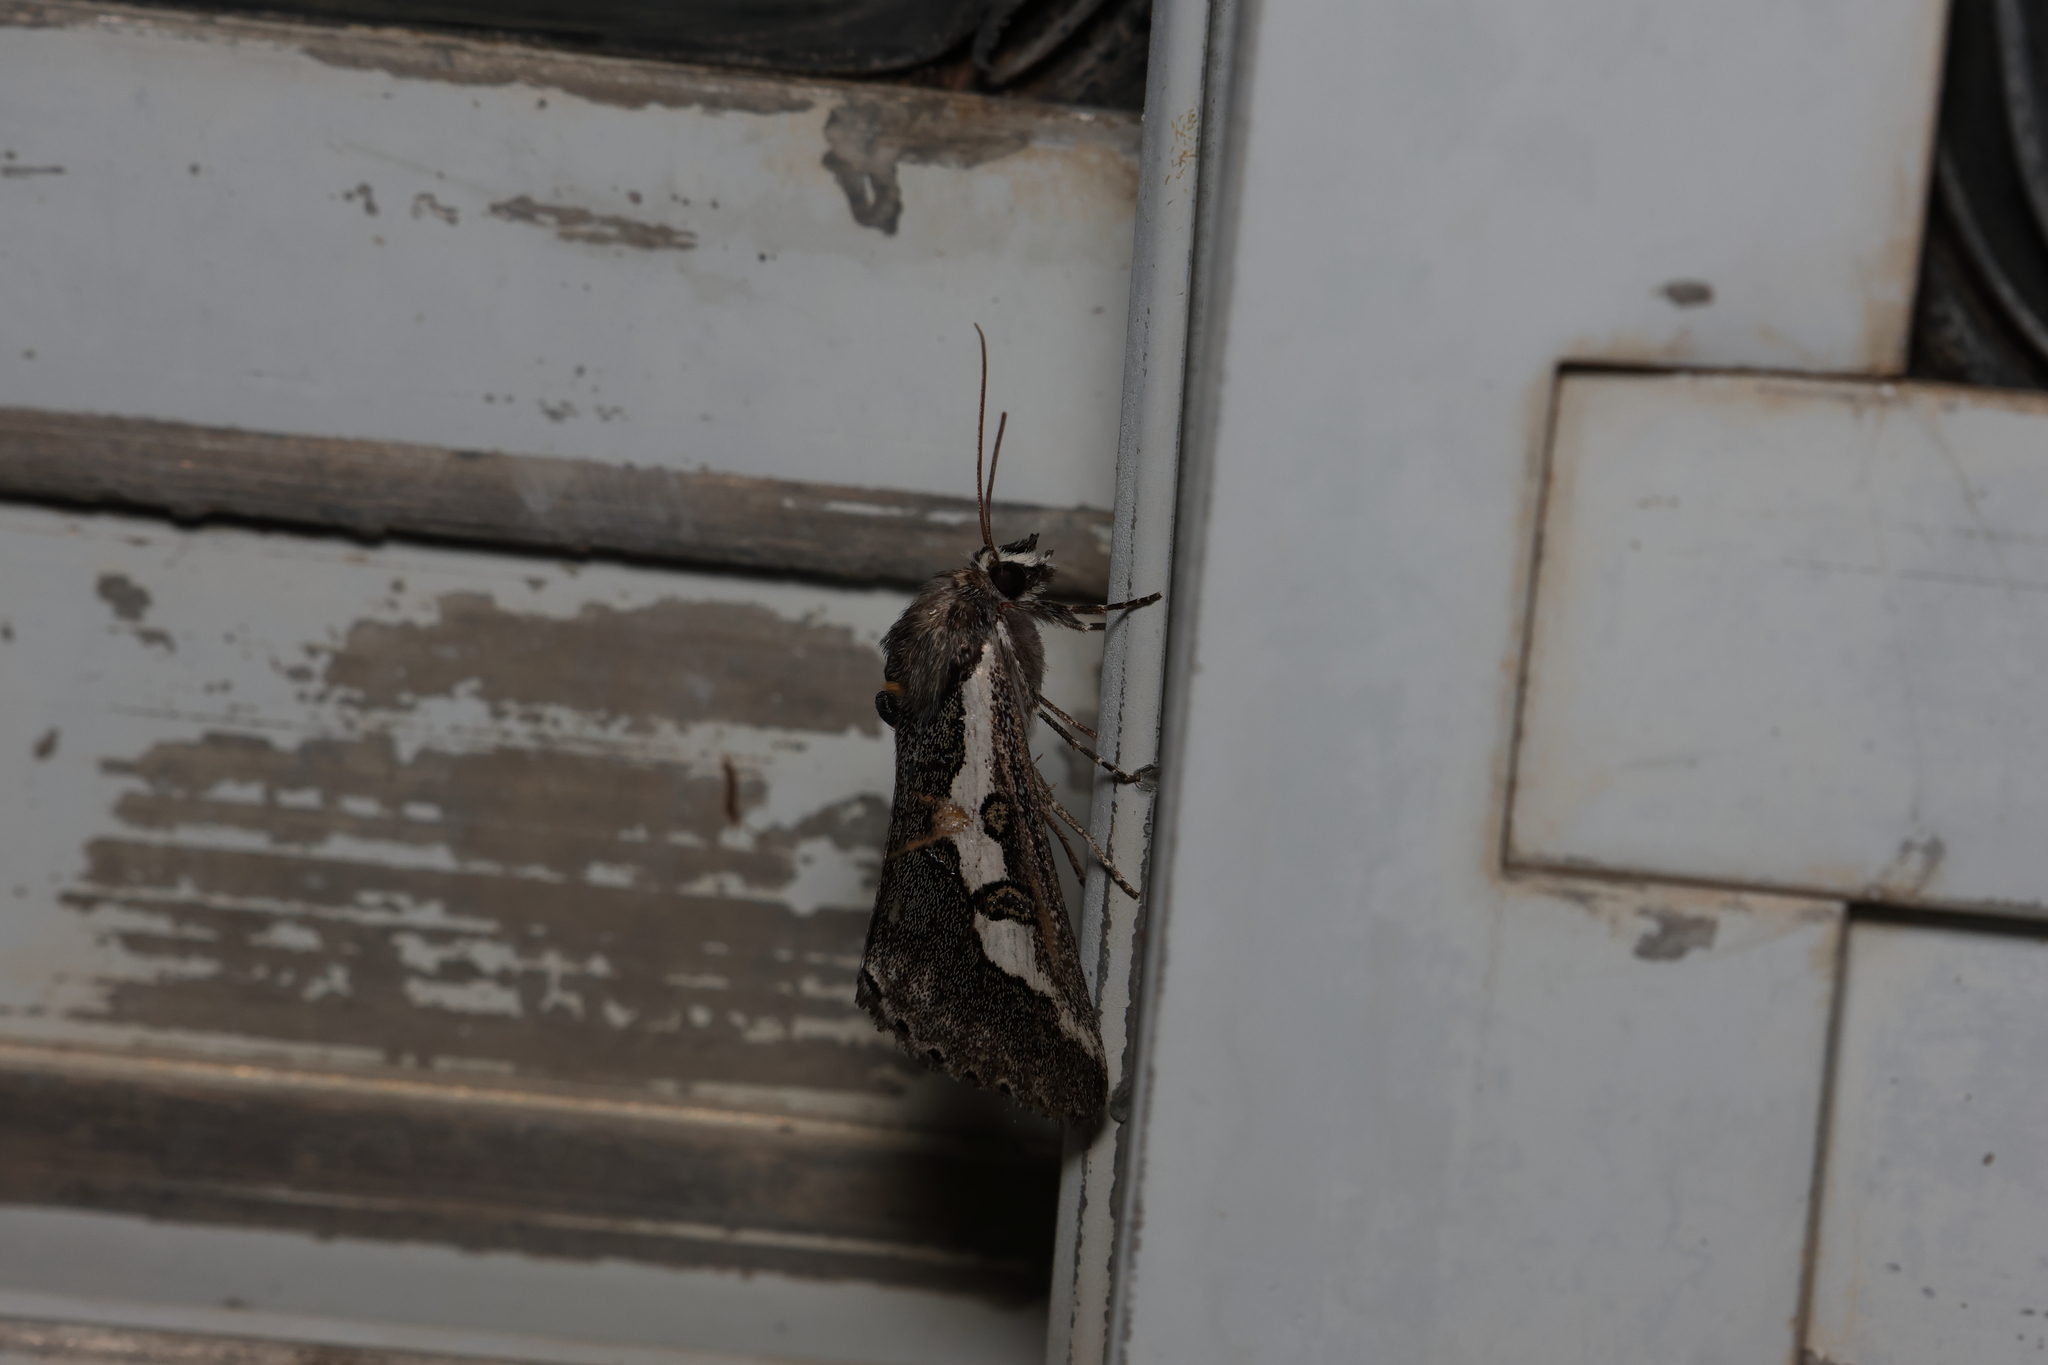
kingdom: Animalia
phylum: Arthropoda
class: Insecta
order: Lepidoptera
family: Noctuidae
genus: Euscirrhopterus
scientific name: Euscirrhopterus gloveri
